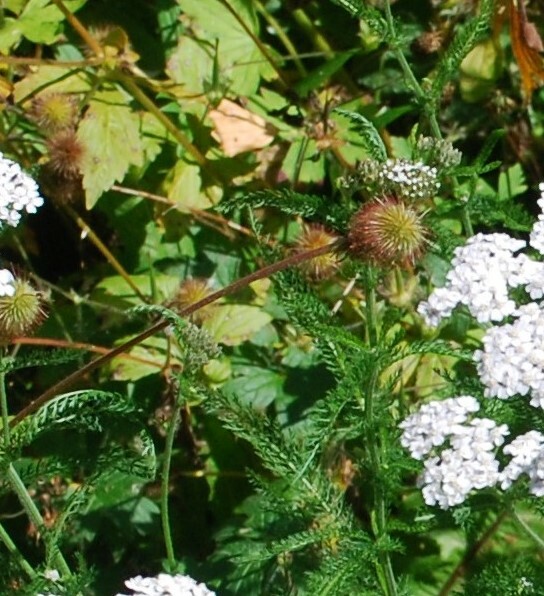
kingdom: Plantae
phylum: Tracheophyta
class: Magnoliopsida
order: Rosales
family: Rosaceae
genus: Geum
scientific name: Geum aleppicum
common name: Yellow avens
